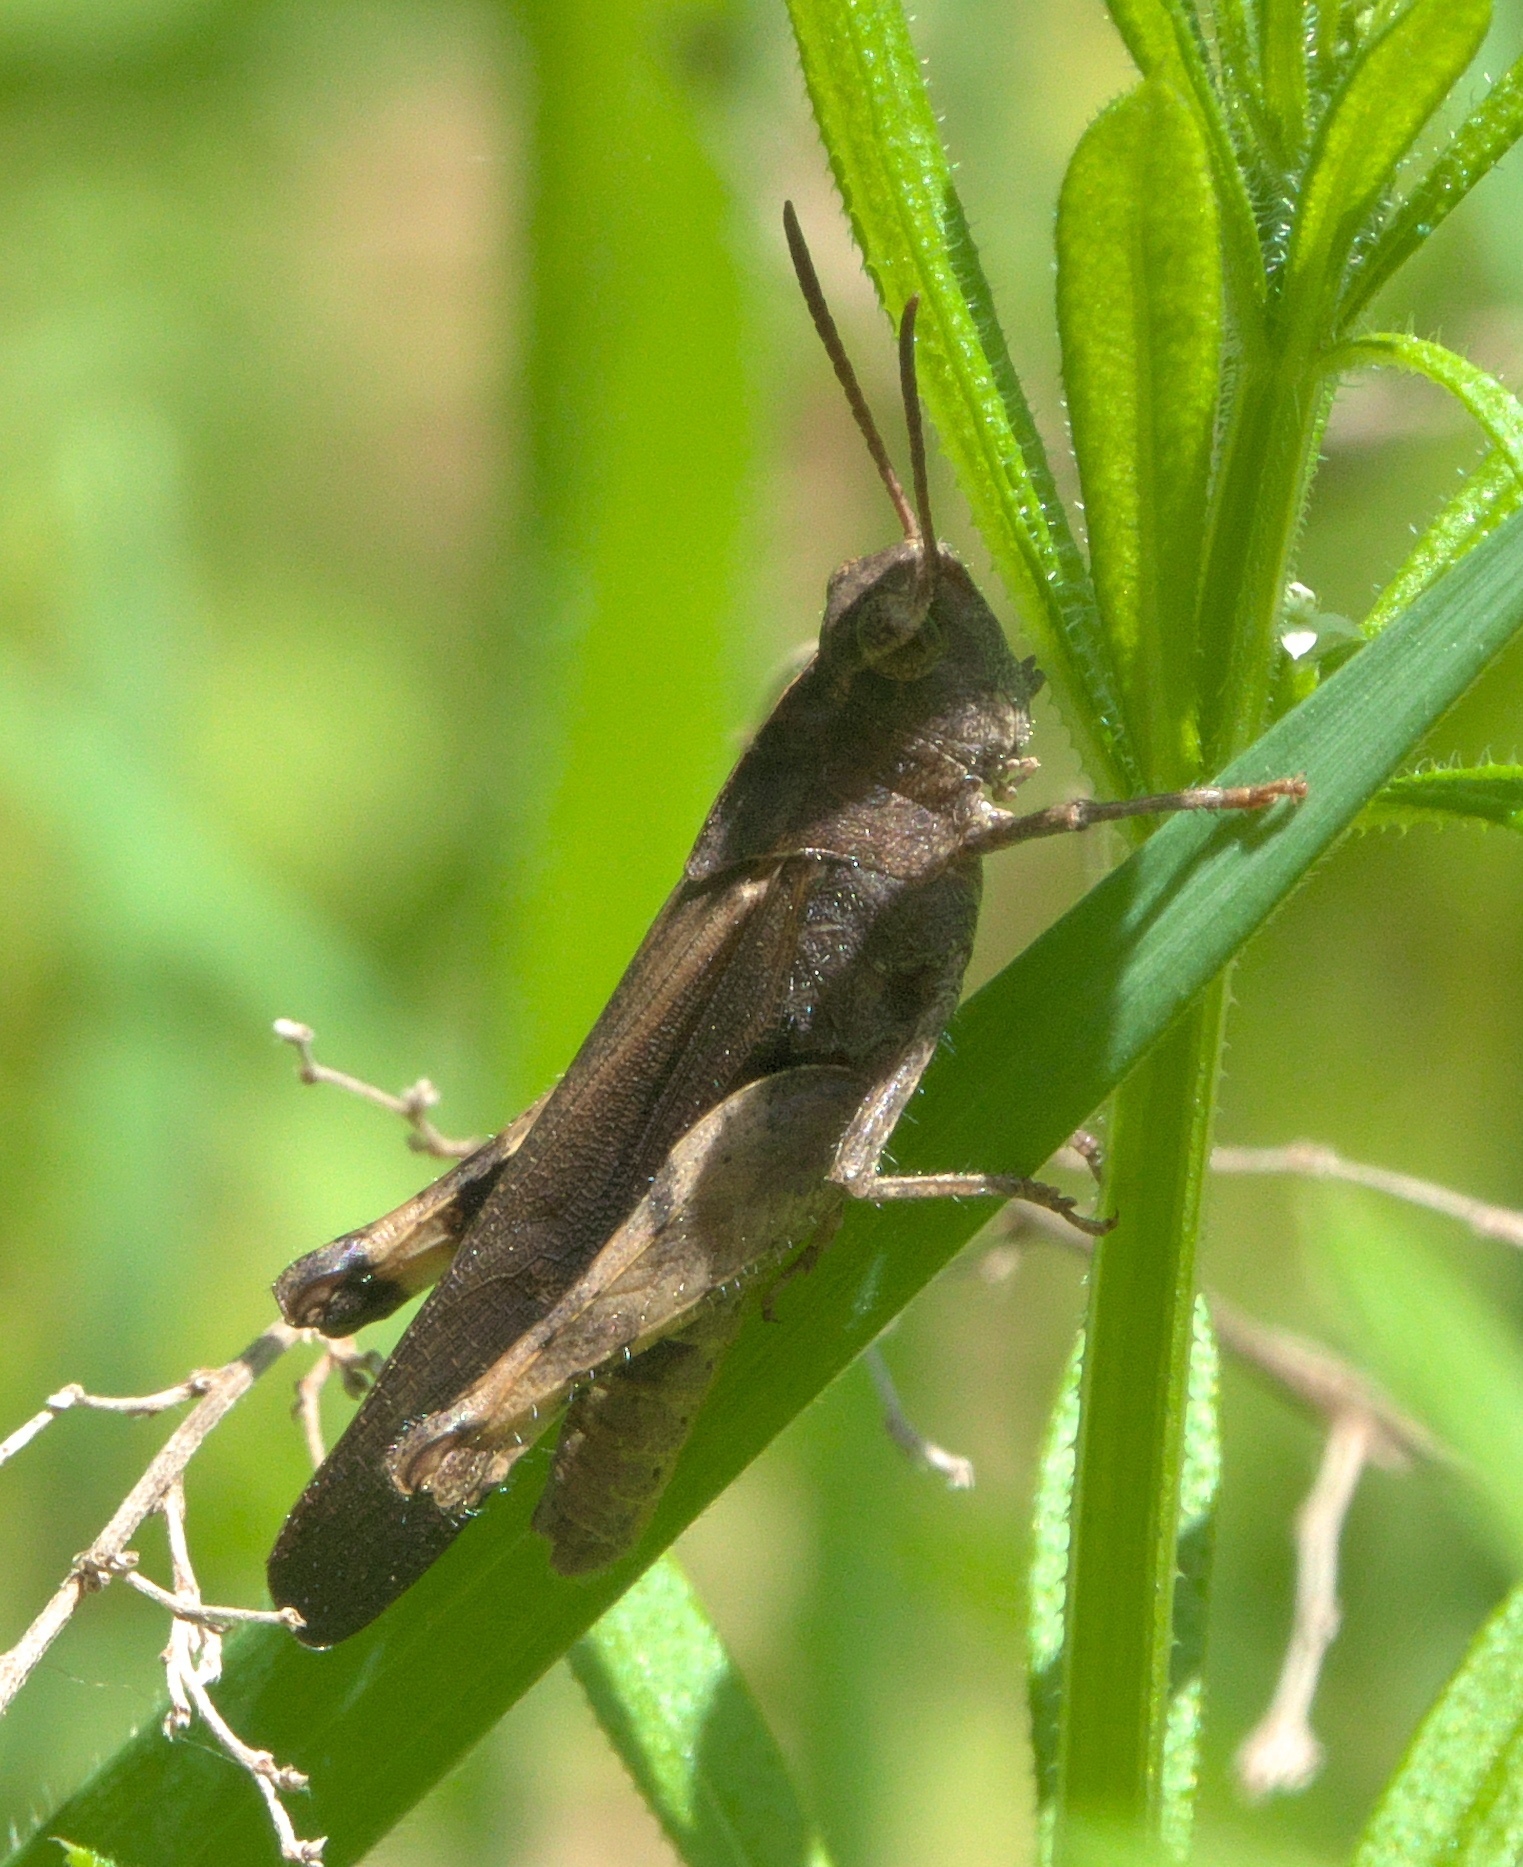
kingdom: Animalia
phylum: Arthropoda
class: Insecta
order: Orthoptera
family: Acrididae
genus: Chortophaga
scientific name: Chortophaga viridifasciata
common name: Green-striped grasshopper
